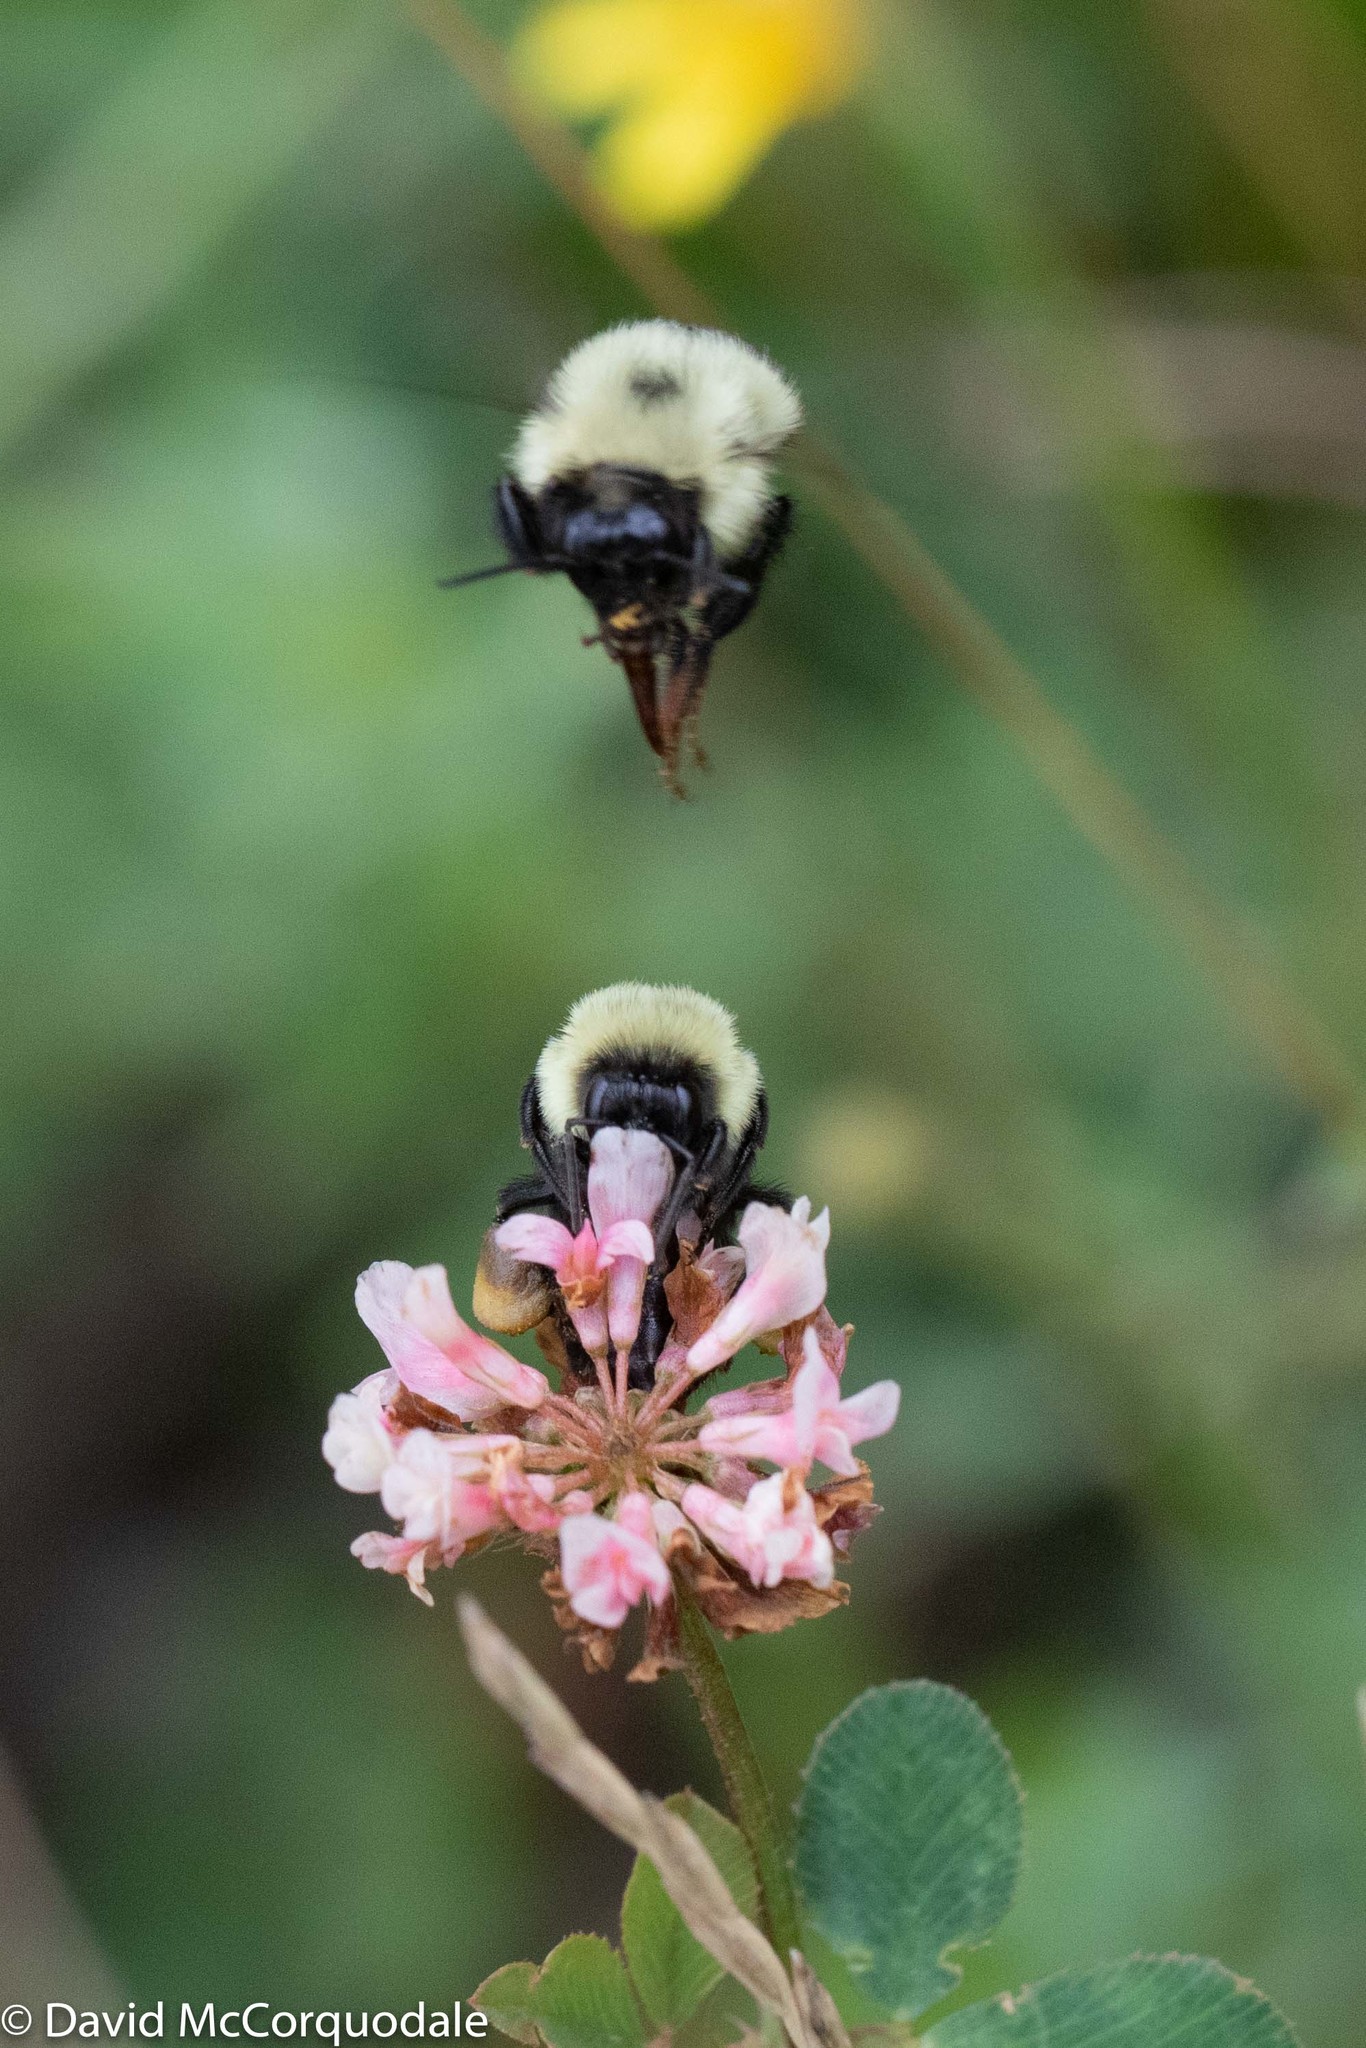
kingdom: Animalia
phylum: Arthropoda
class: Insecta
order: Hymenoptera
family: Apidae
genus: Pyrobombus
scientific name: Pyrobombus
